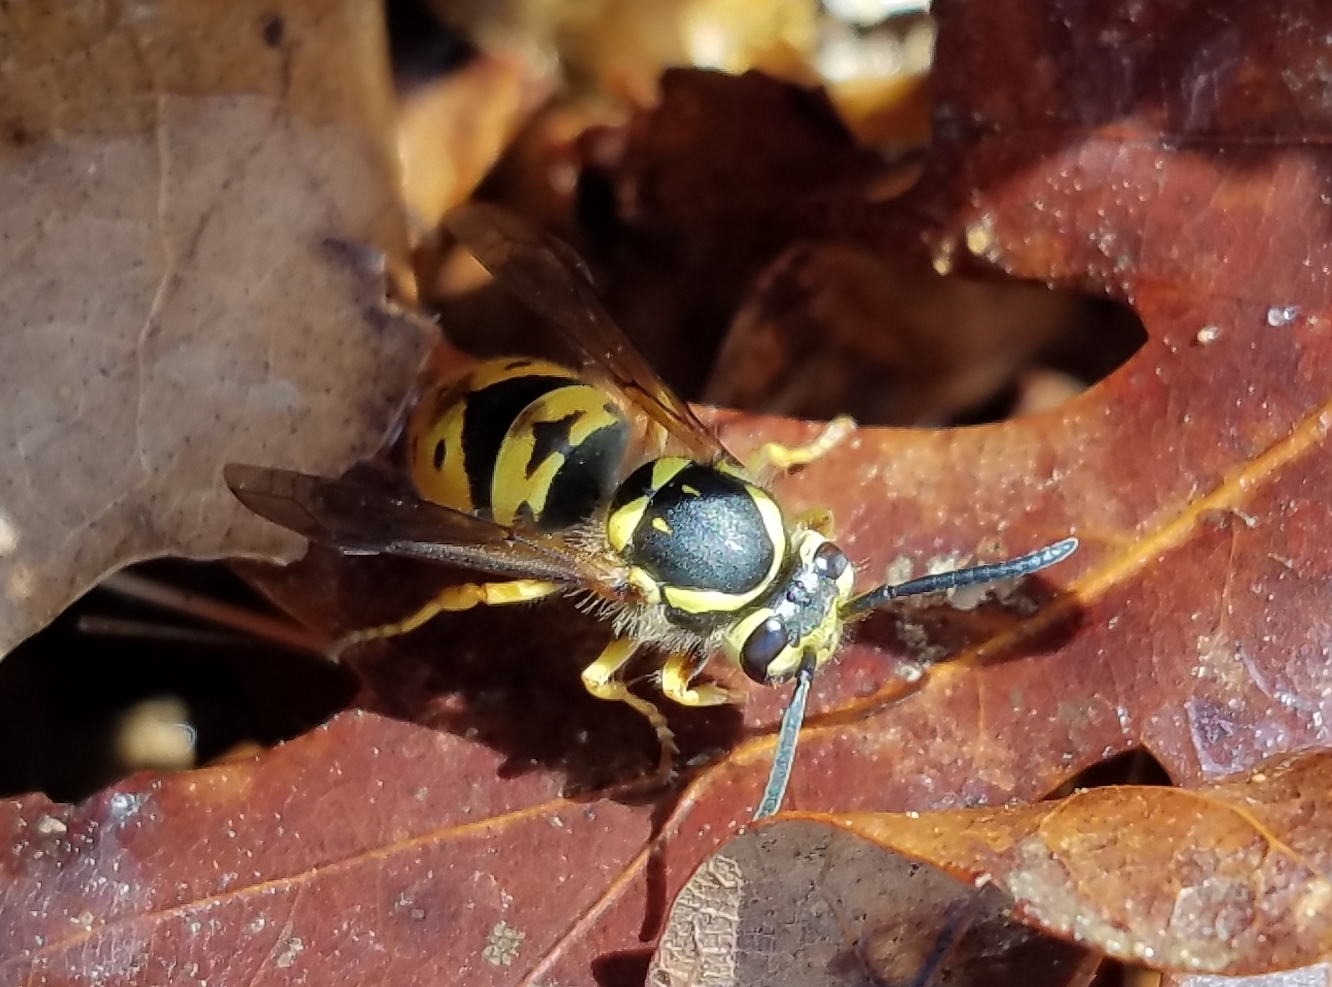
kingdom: Animalia
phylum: Arthropoda
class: Insecta
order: Hymenoptera
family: Vespidae
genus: Vespula
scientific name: Vespula maculifrons
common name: Eastern yellowjacket
